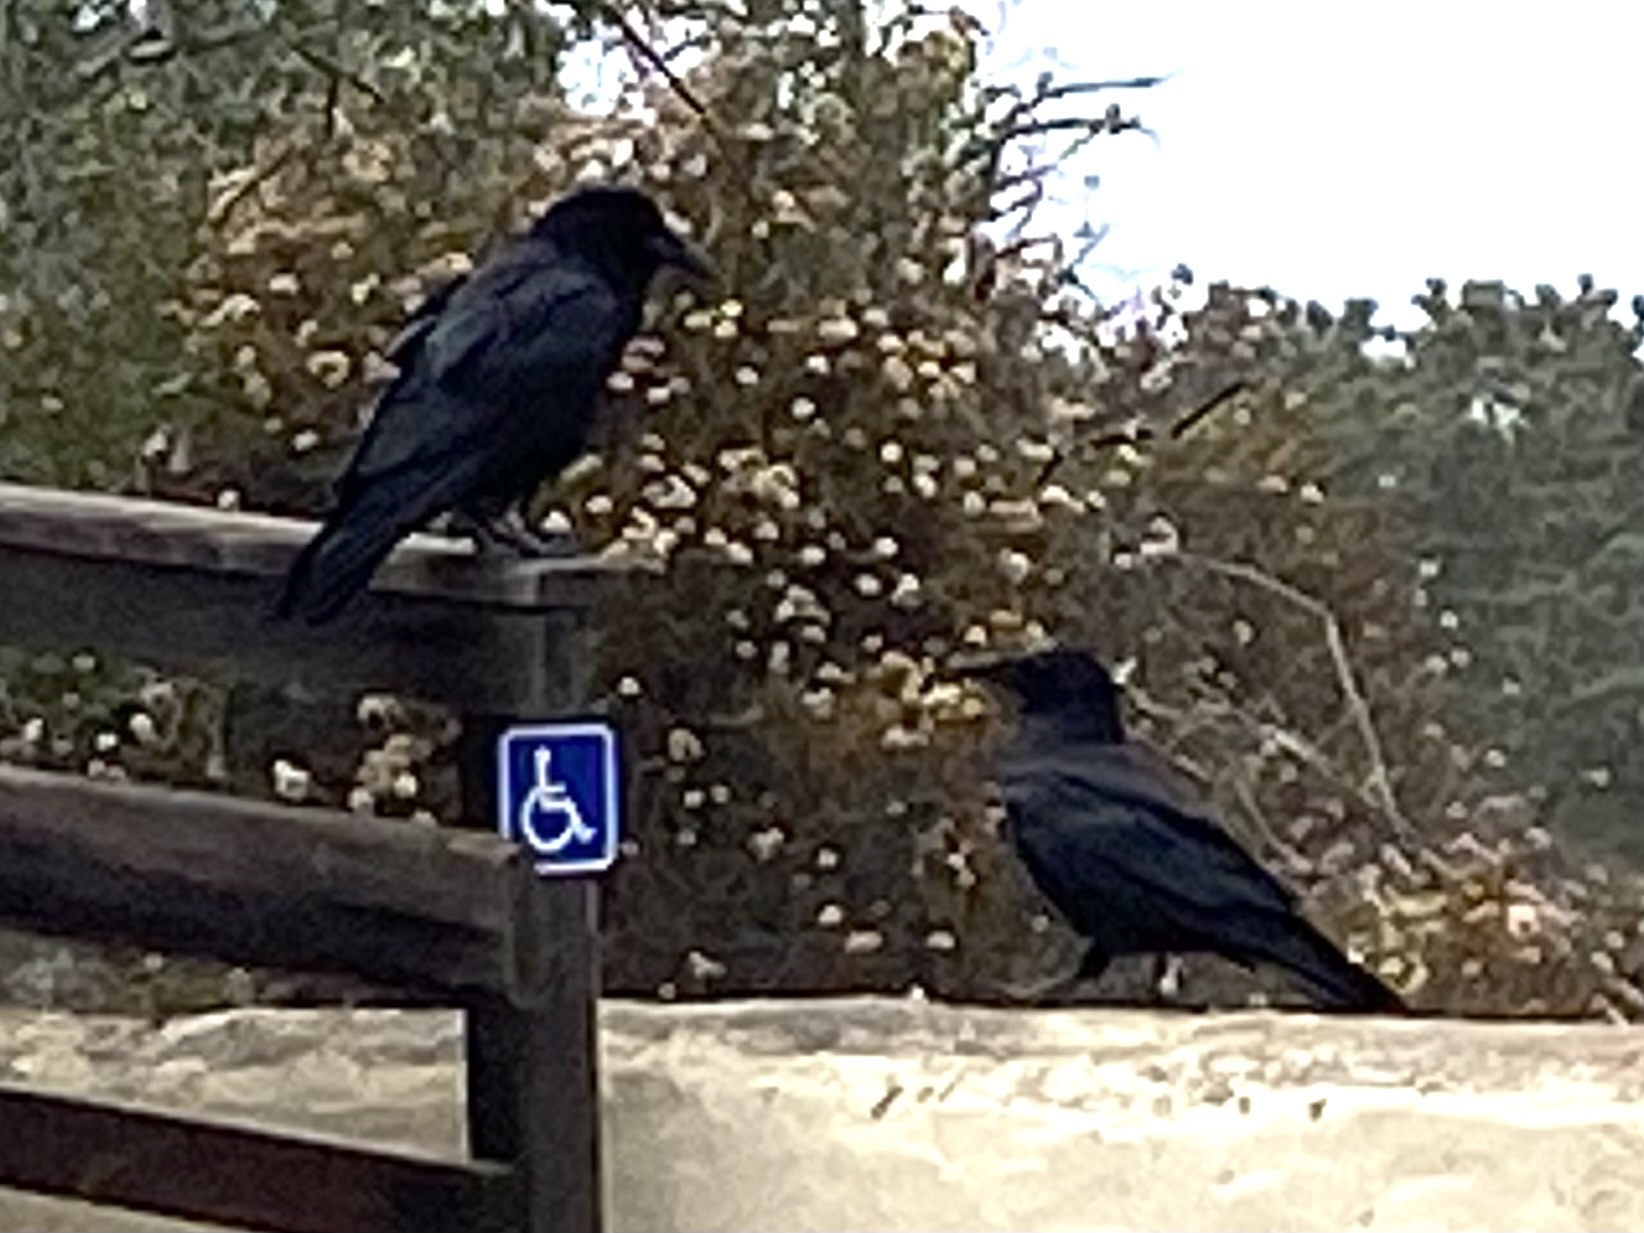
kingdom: Animalia
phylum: Chordata
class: Aves
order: Passeriformes
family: Corvidae
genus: Corvus
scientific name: Corvus corax
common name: Common raven
